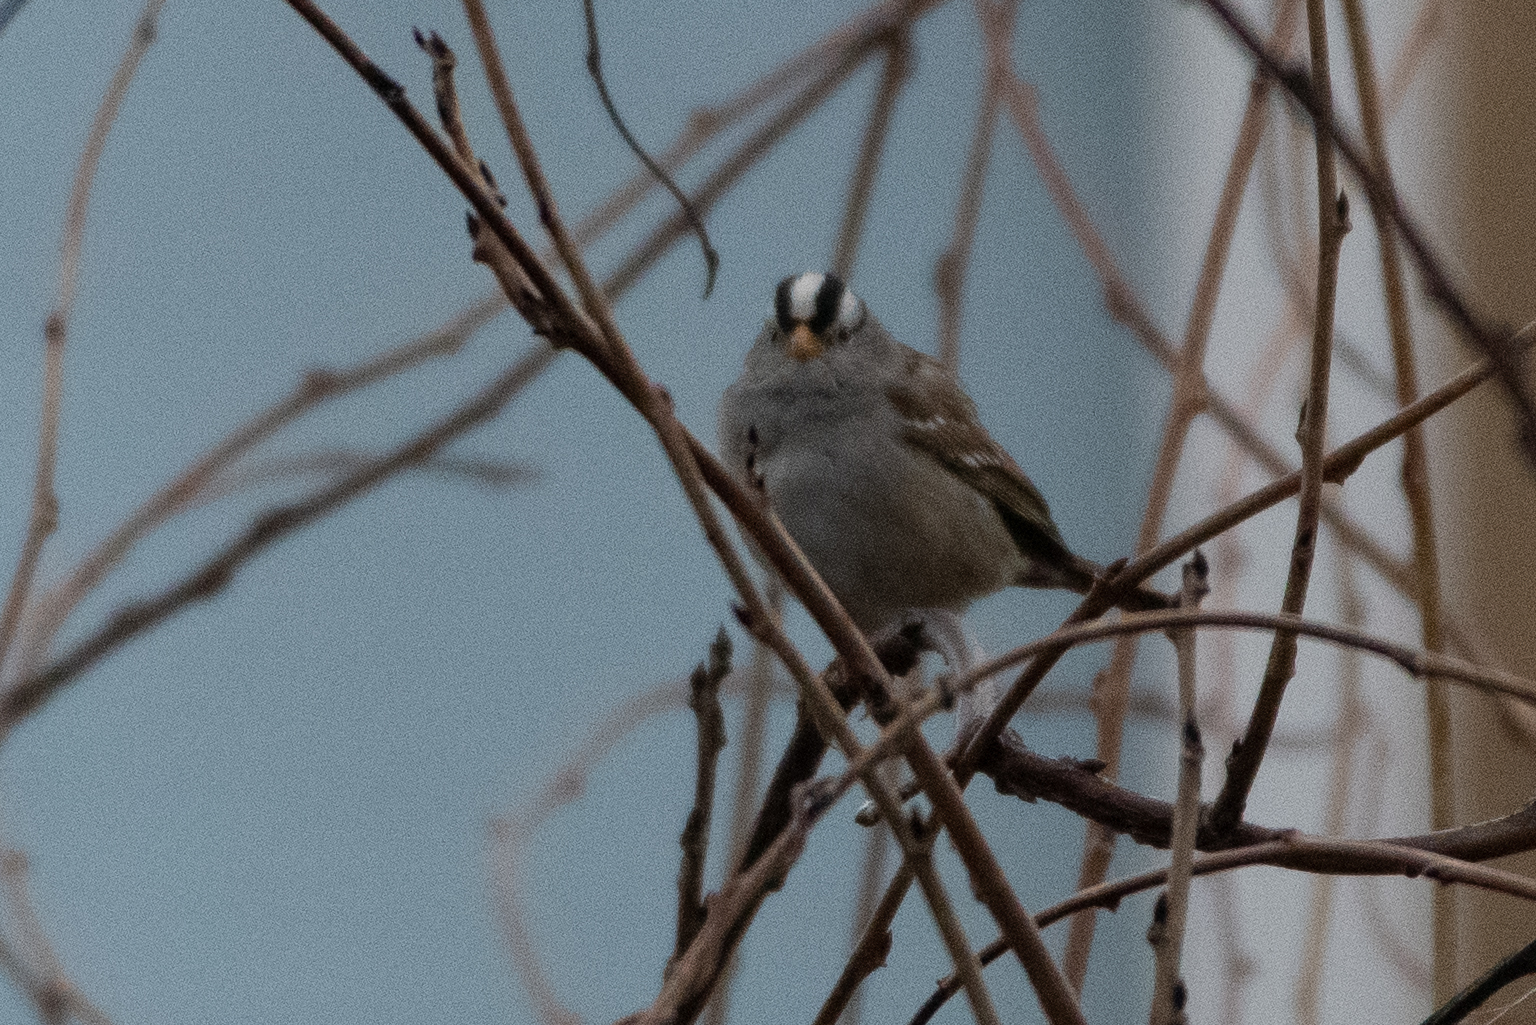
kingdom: Animalia
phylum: Chordata
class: Aves
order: Passeriformes
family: Passerellidae
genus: Zonotrichia
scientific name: Zonotrichia leucophrys
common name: White-crowned sparrow
